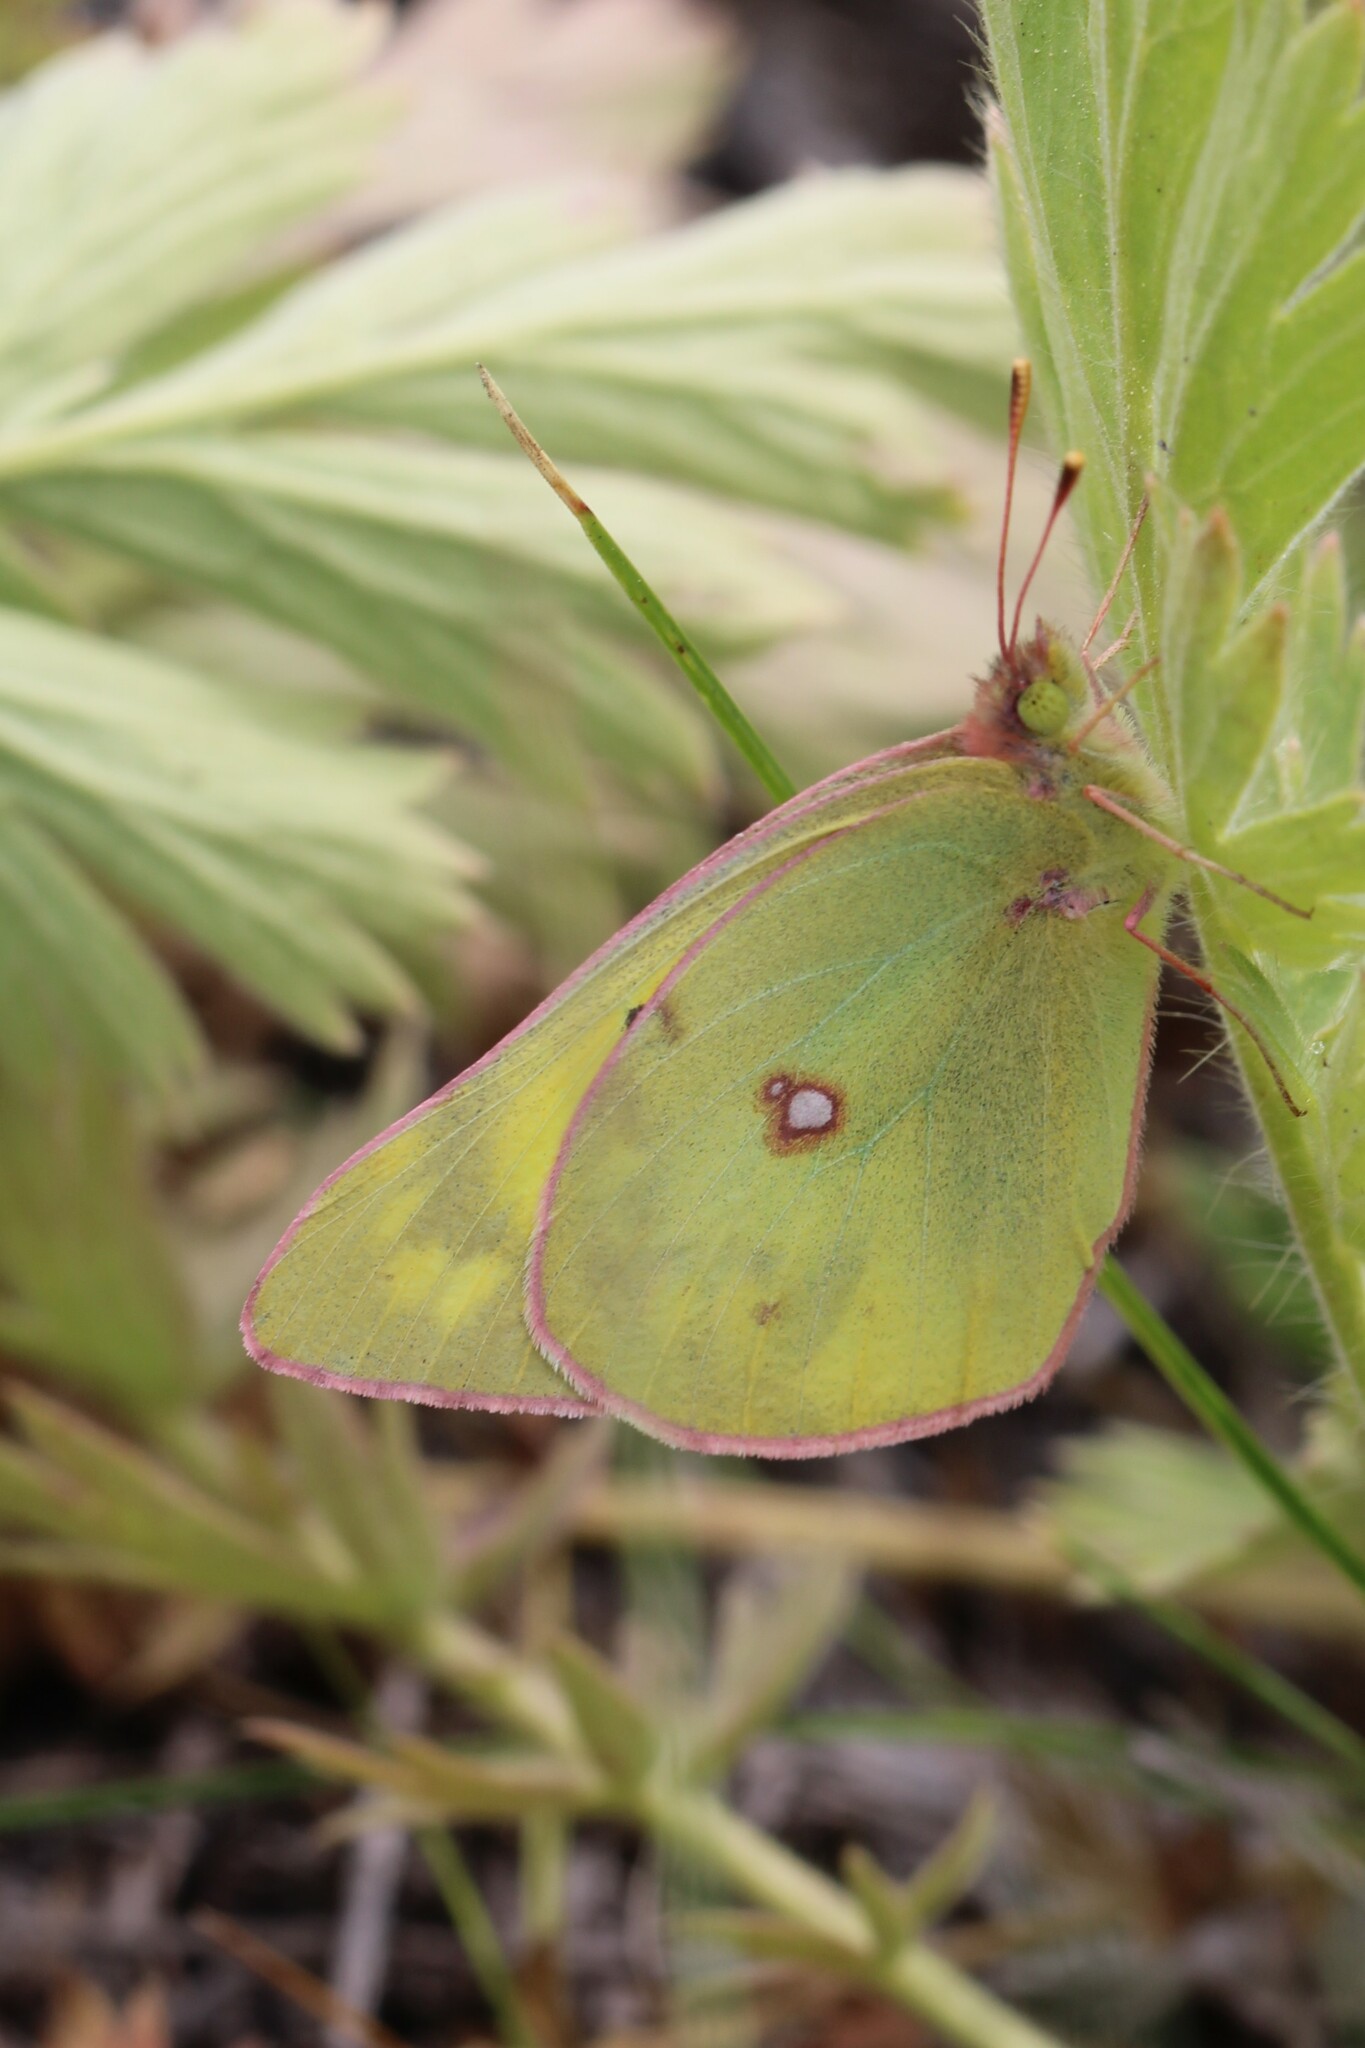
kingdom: Animalia
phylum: Arthropoda
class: Insecta
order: Lepidoptera
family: Pieridae
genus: Colias
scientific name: Colias philodice
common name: Clouded sulphur
